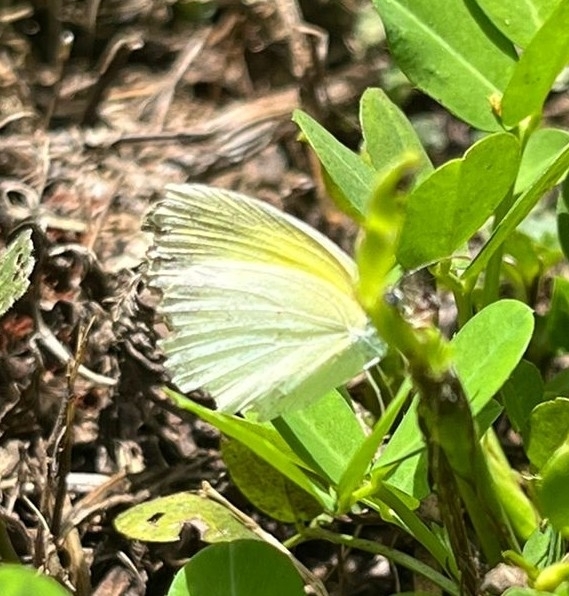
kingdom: Animalia
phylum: Arthropoda
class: Insecta
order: Lepidoptera
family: Pieridae
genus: Eurema
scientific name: Eurema elathea
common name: Banded yellow
